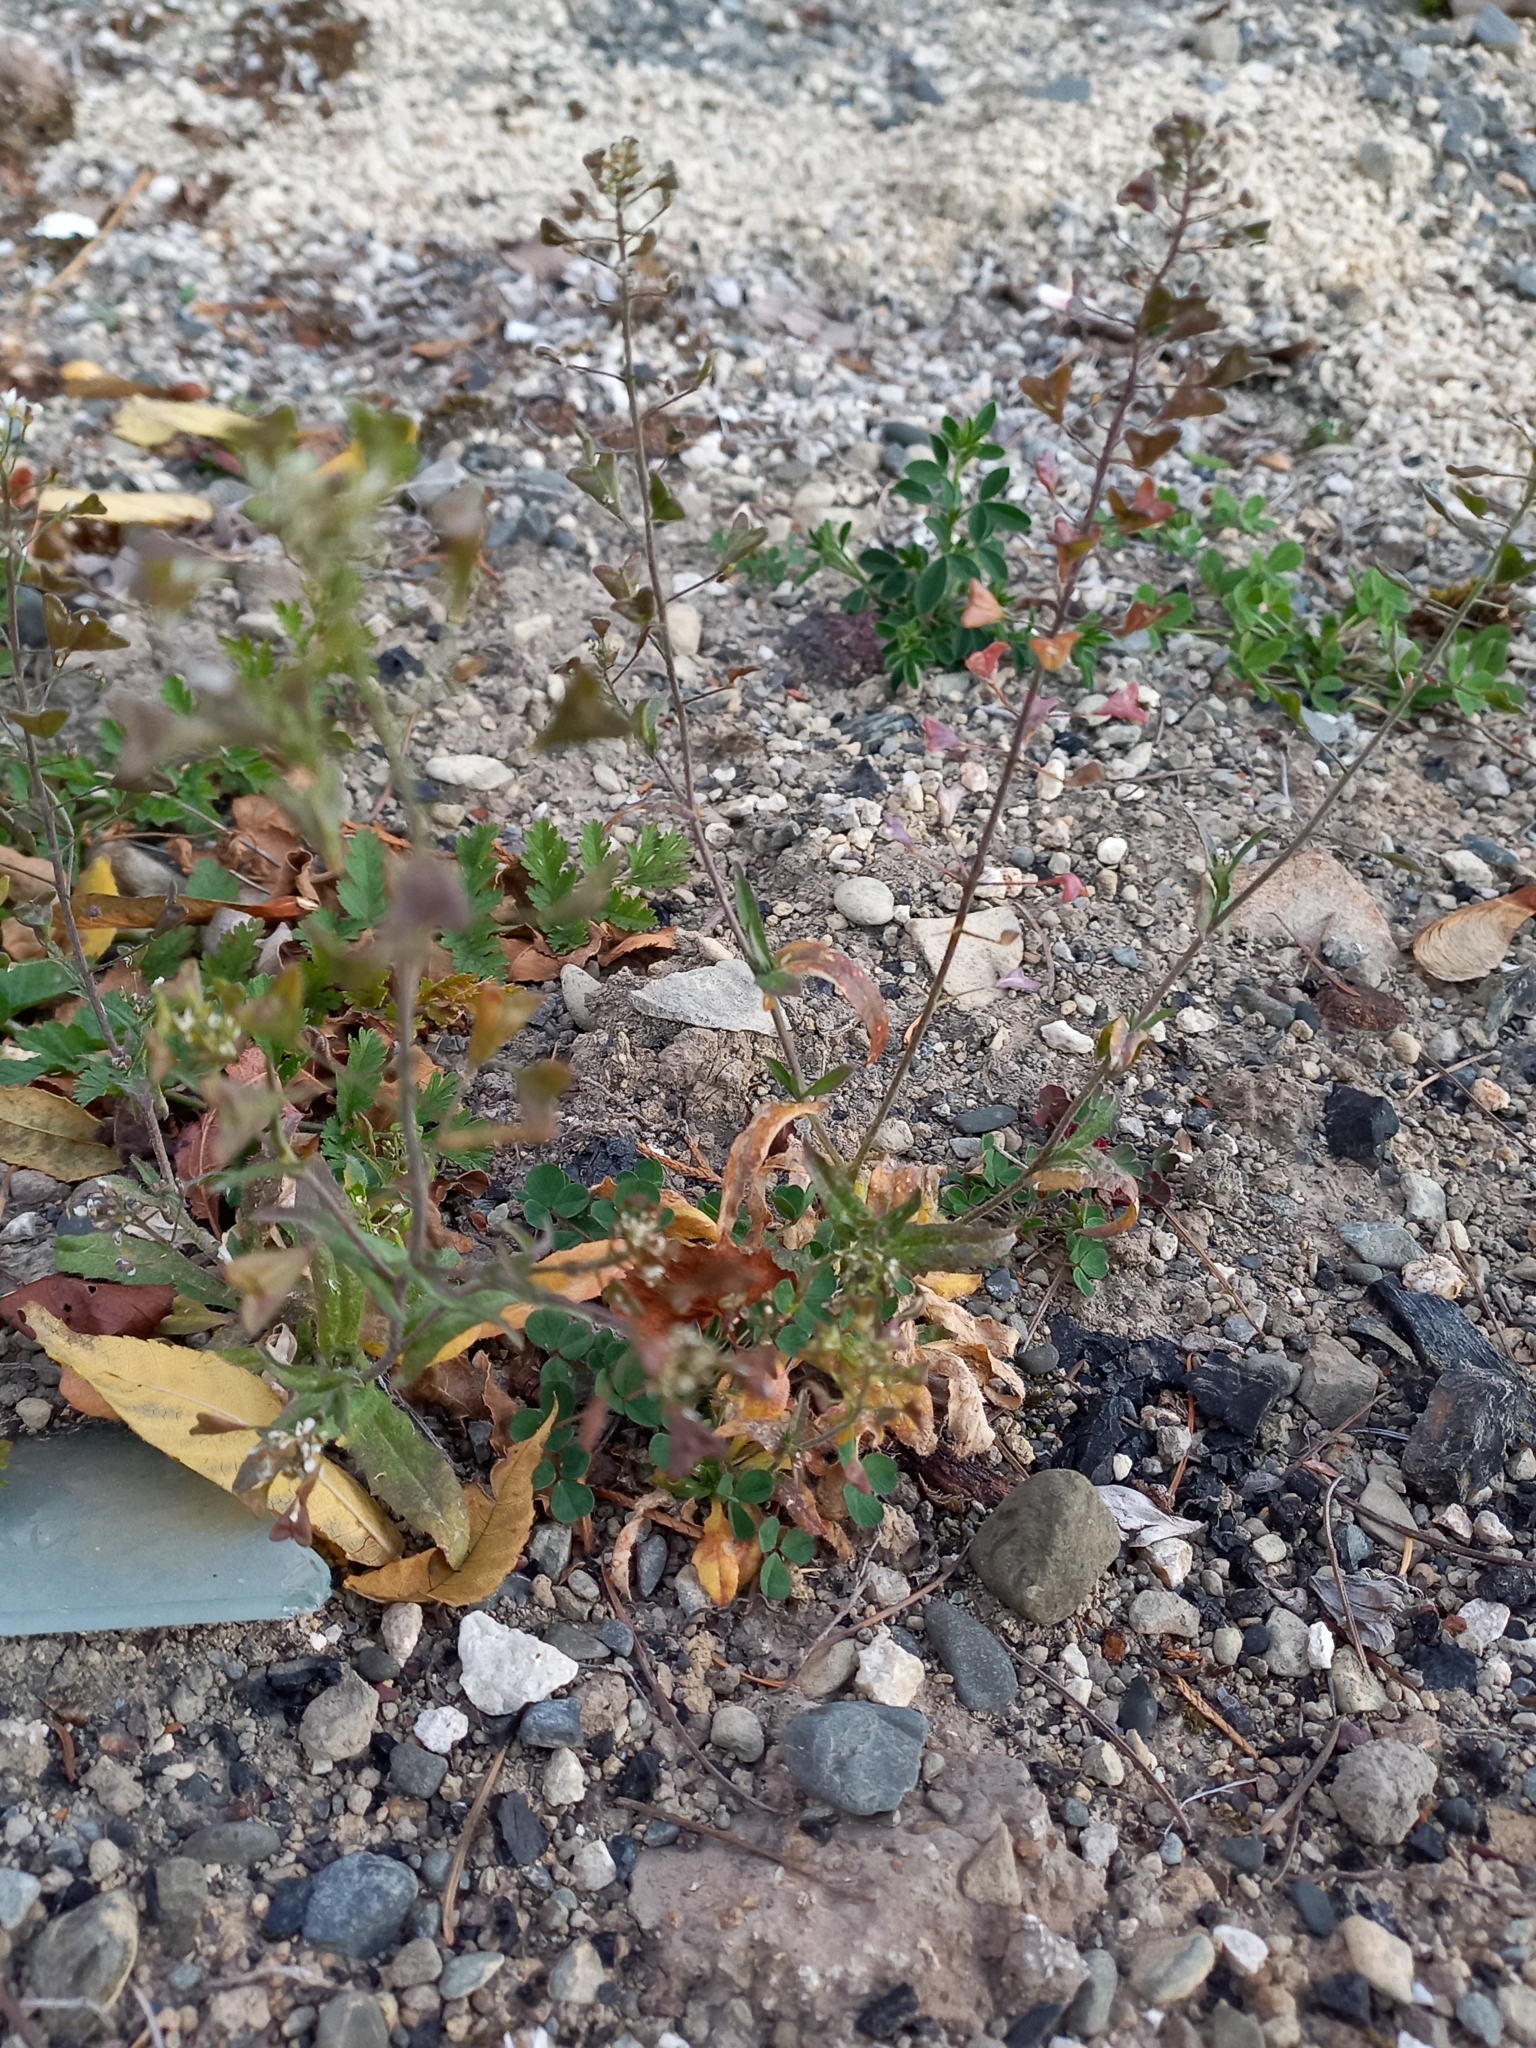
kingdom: Plantae
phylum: Tracheophyta
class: Magnoliopsida
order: Brassicales
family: Brassicaceae
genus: Capsella
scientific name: Capsella bursa-pastoris
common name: Shepherd's purse
